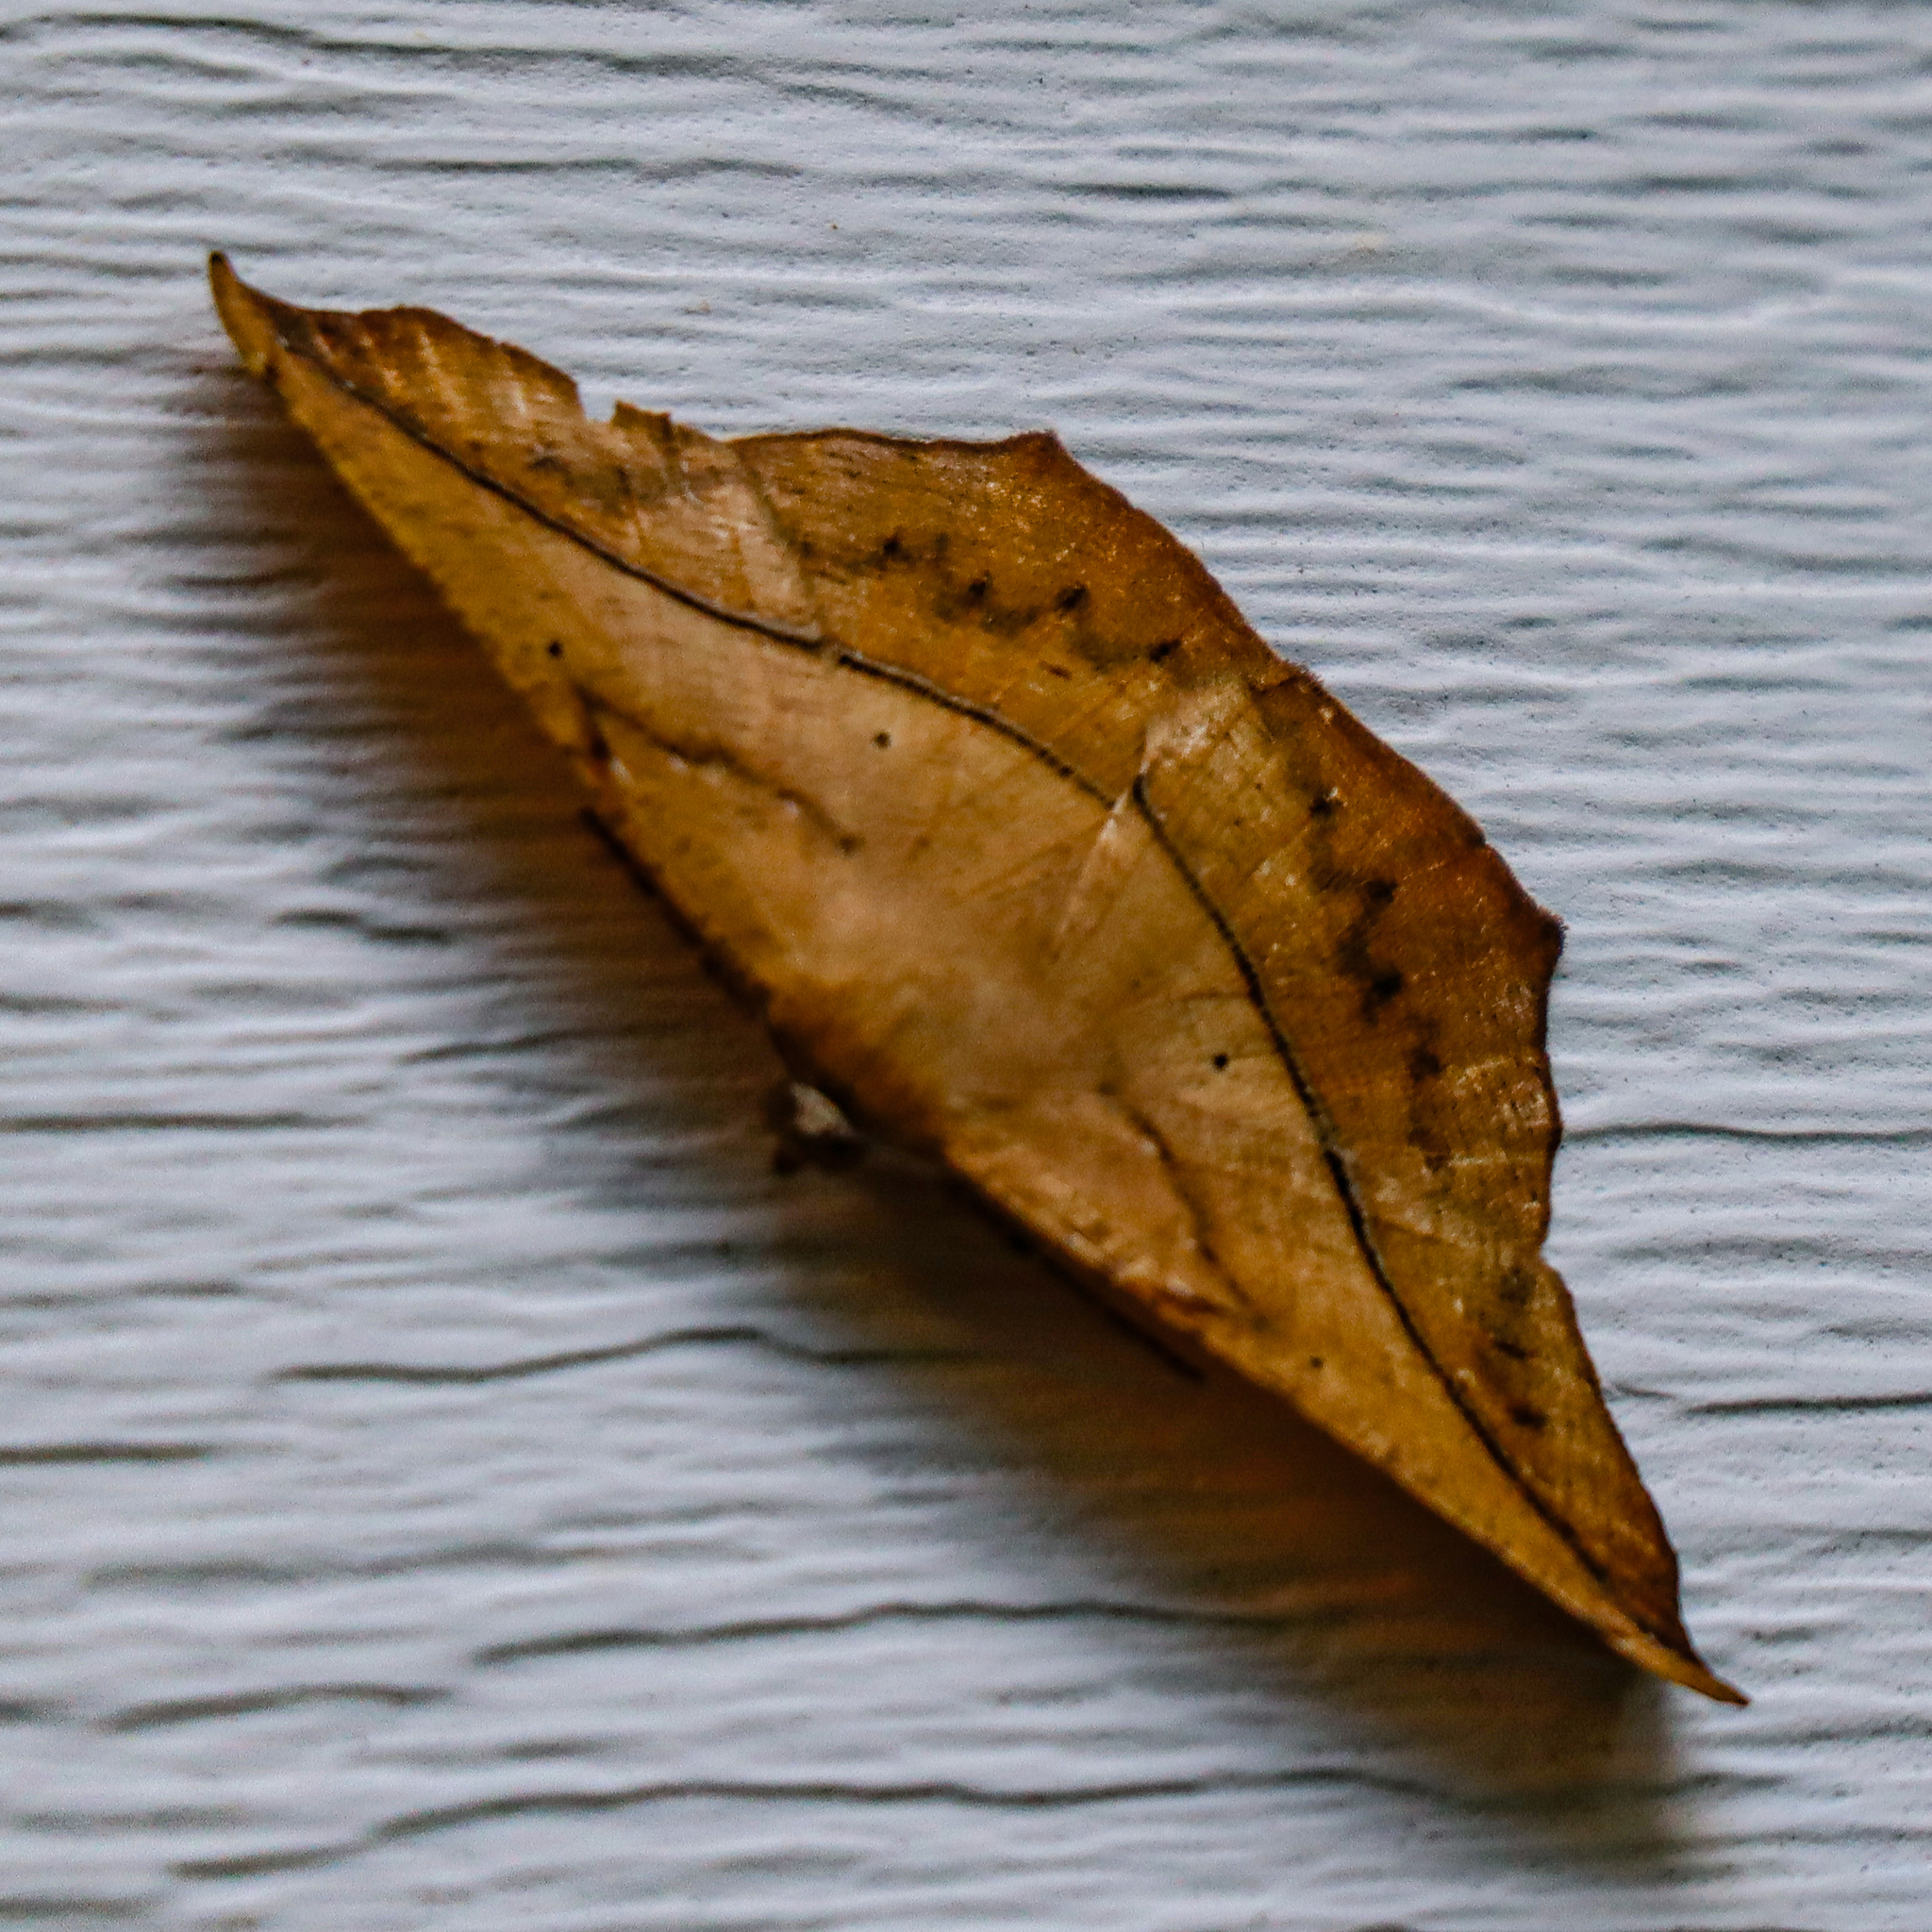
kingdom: Animalia
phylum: Arthropoda
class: Insecta
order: Lepidoptera
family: Geometridae
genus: Prochoerodes
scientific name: Prochoerodes lineola
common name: Large maple spanworm
